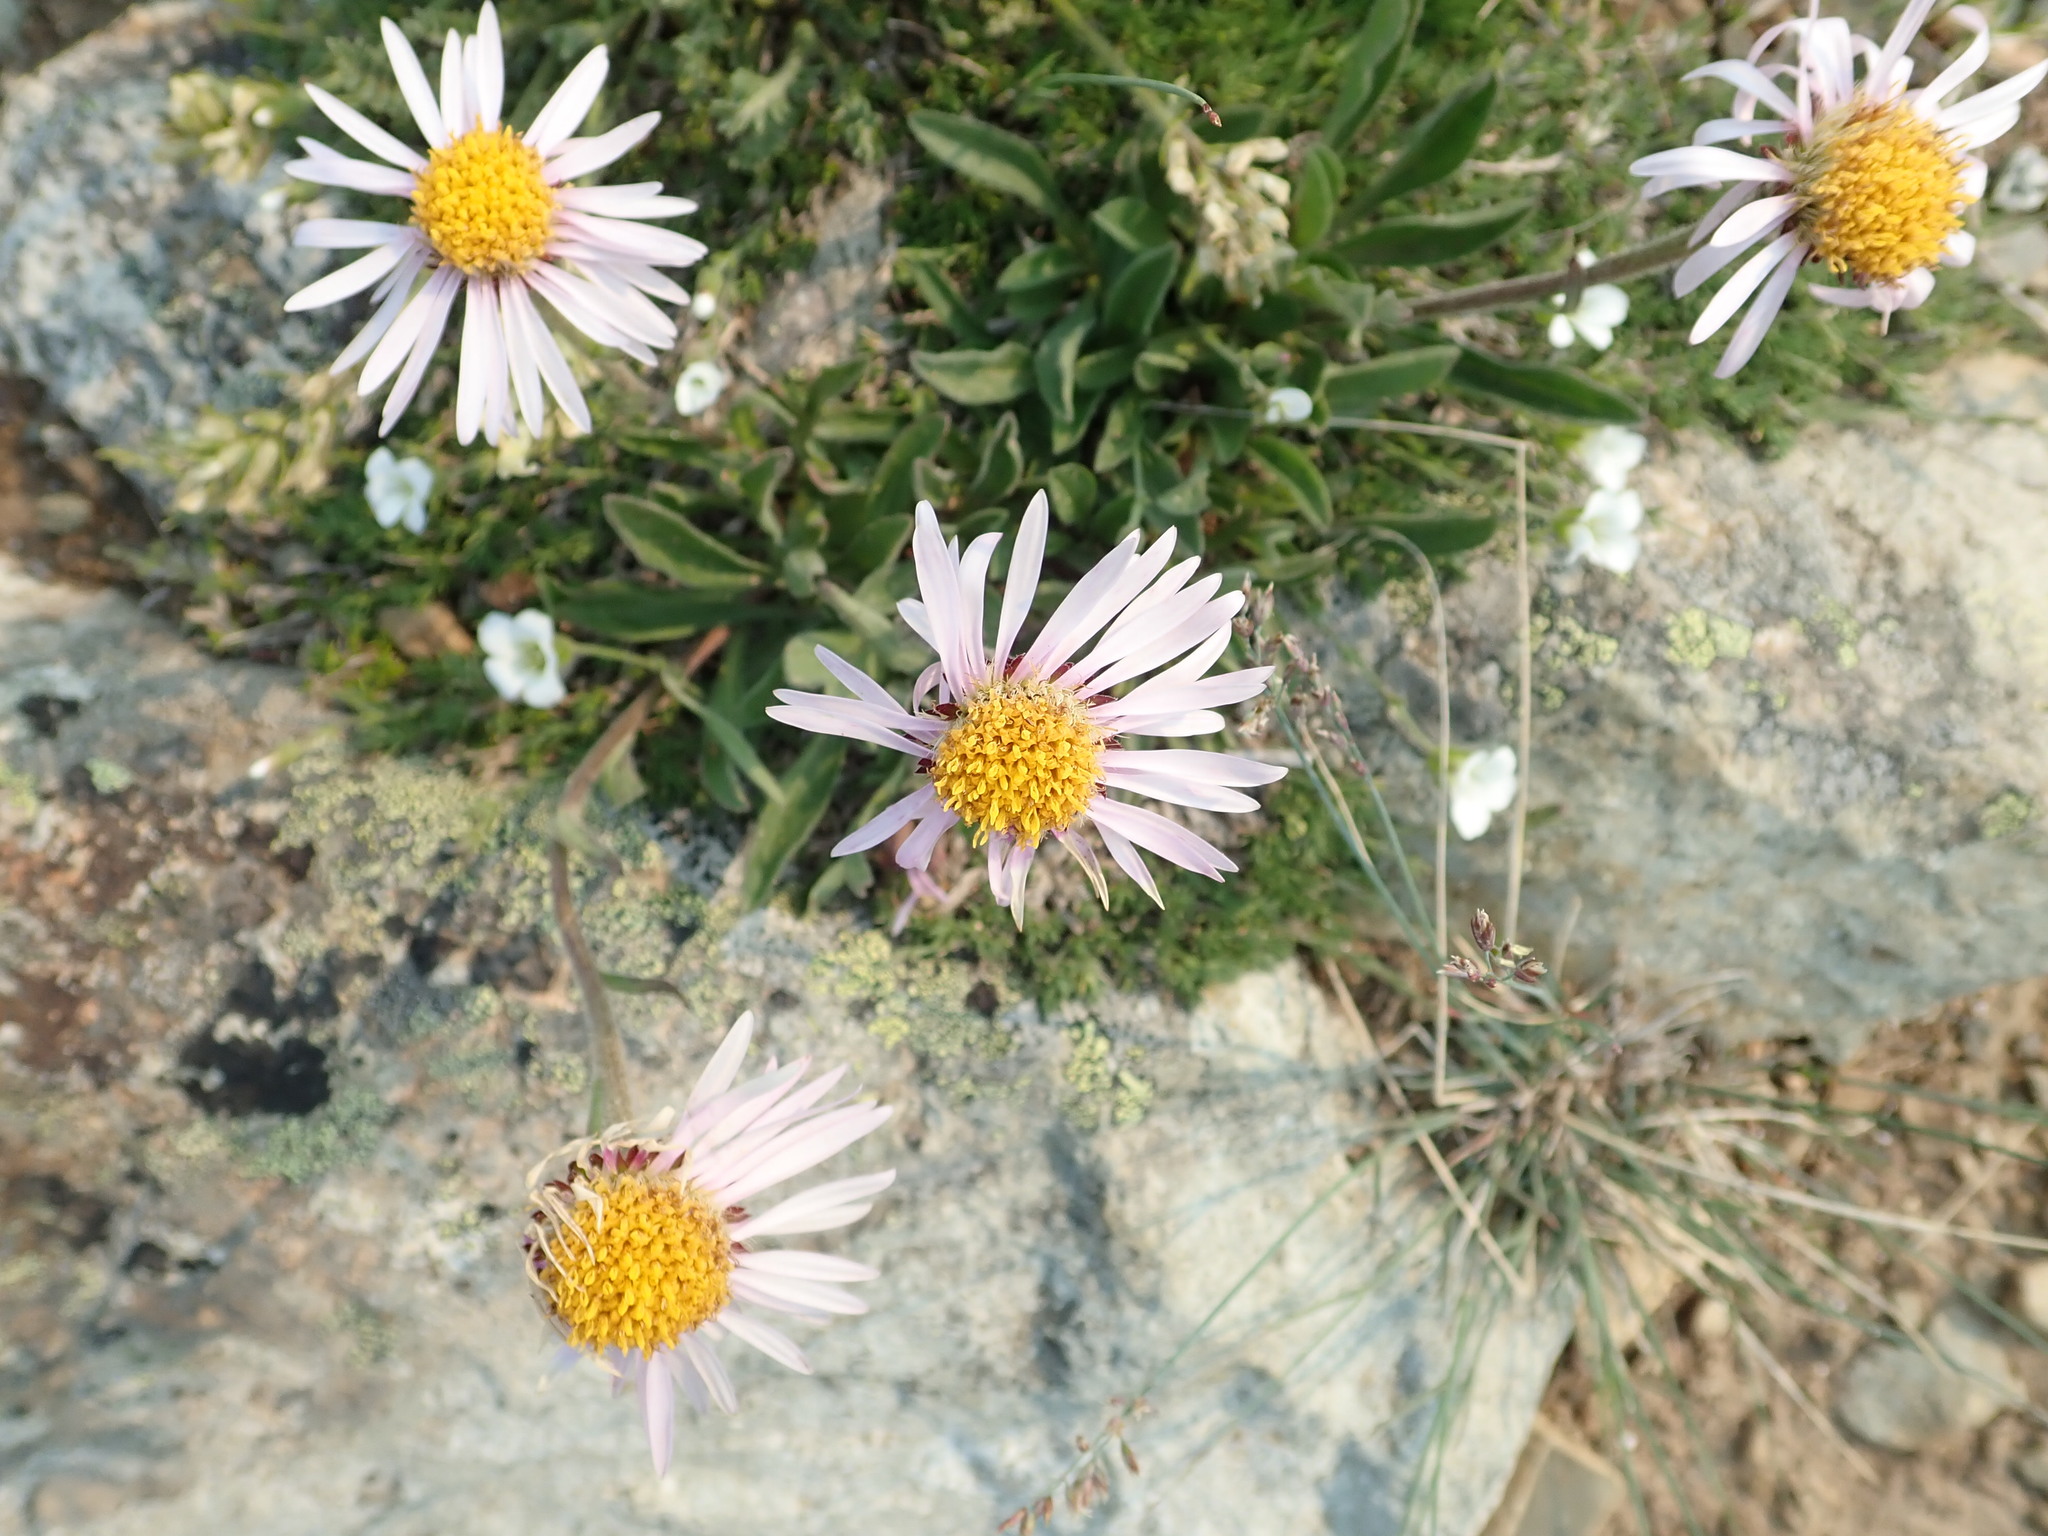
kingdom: Plantae
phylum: Tracheophyta
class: Magnoliopsida
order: Asterales
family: Asteraceae
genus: Aster
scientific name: Aster alpinus
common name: Alpine aster
